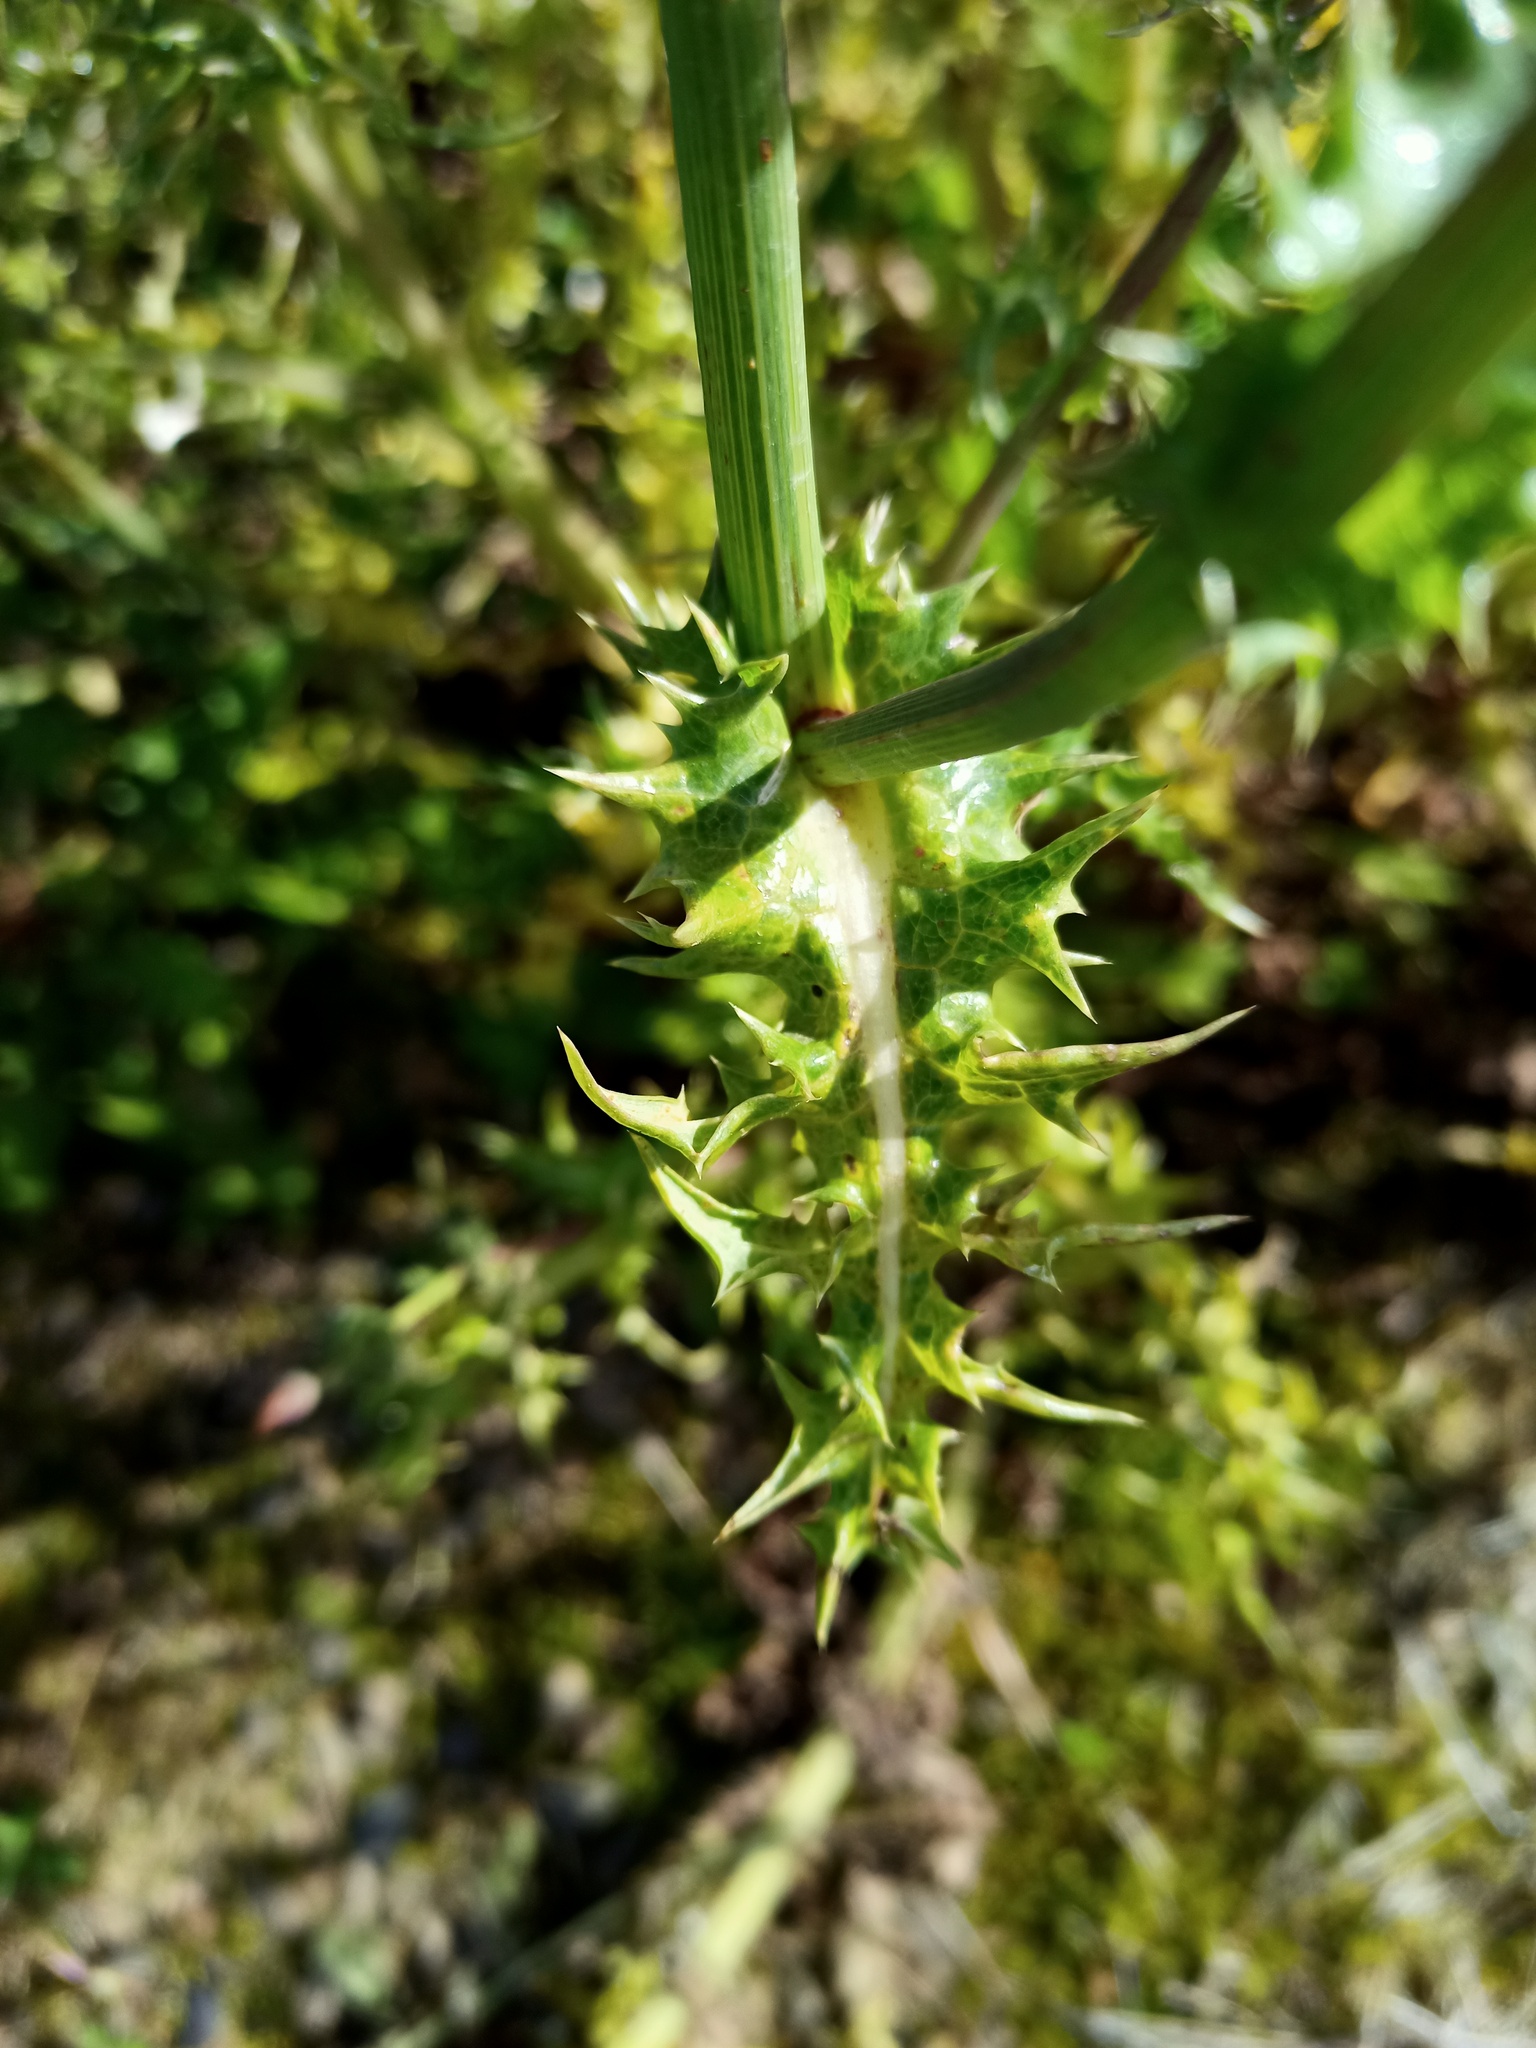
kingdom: Plantae
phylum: Tracheophyta
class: Magnoliopsida
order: Asterales
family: Asteraceae
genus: Sonchus
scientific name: Sonchus asper
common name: Prickly sow-thistle
